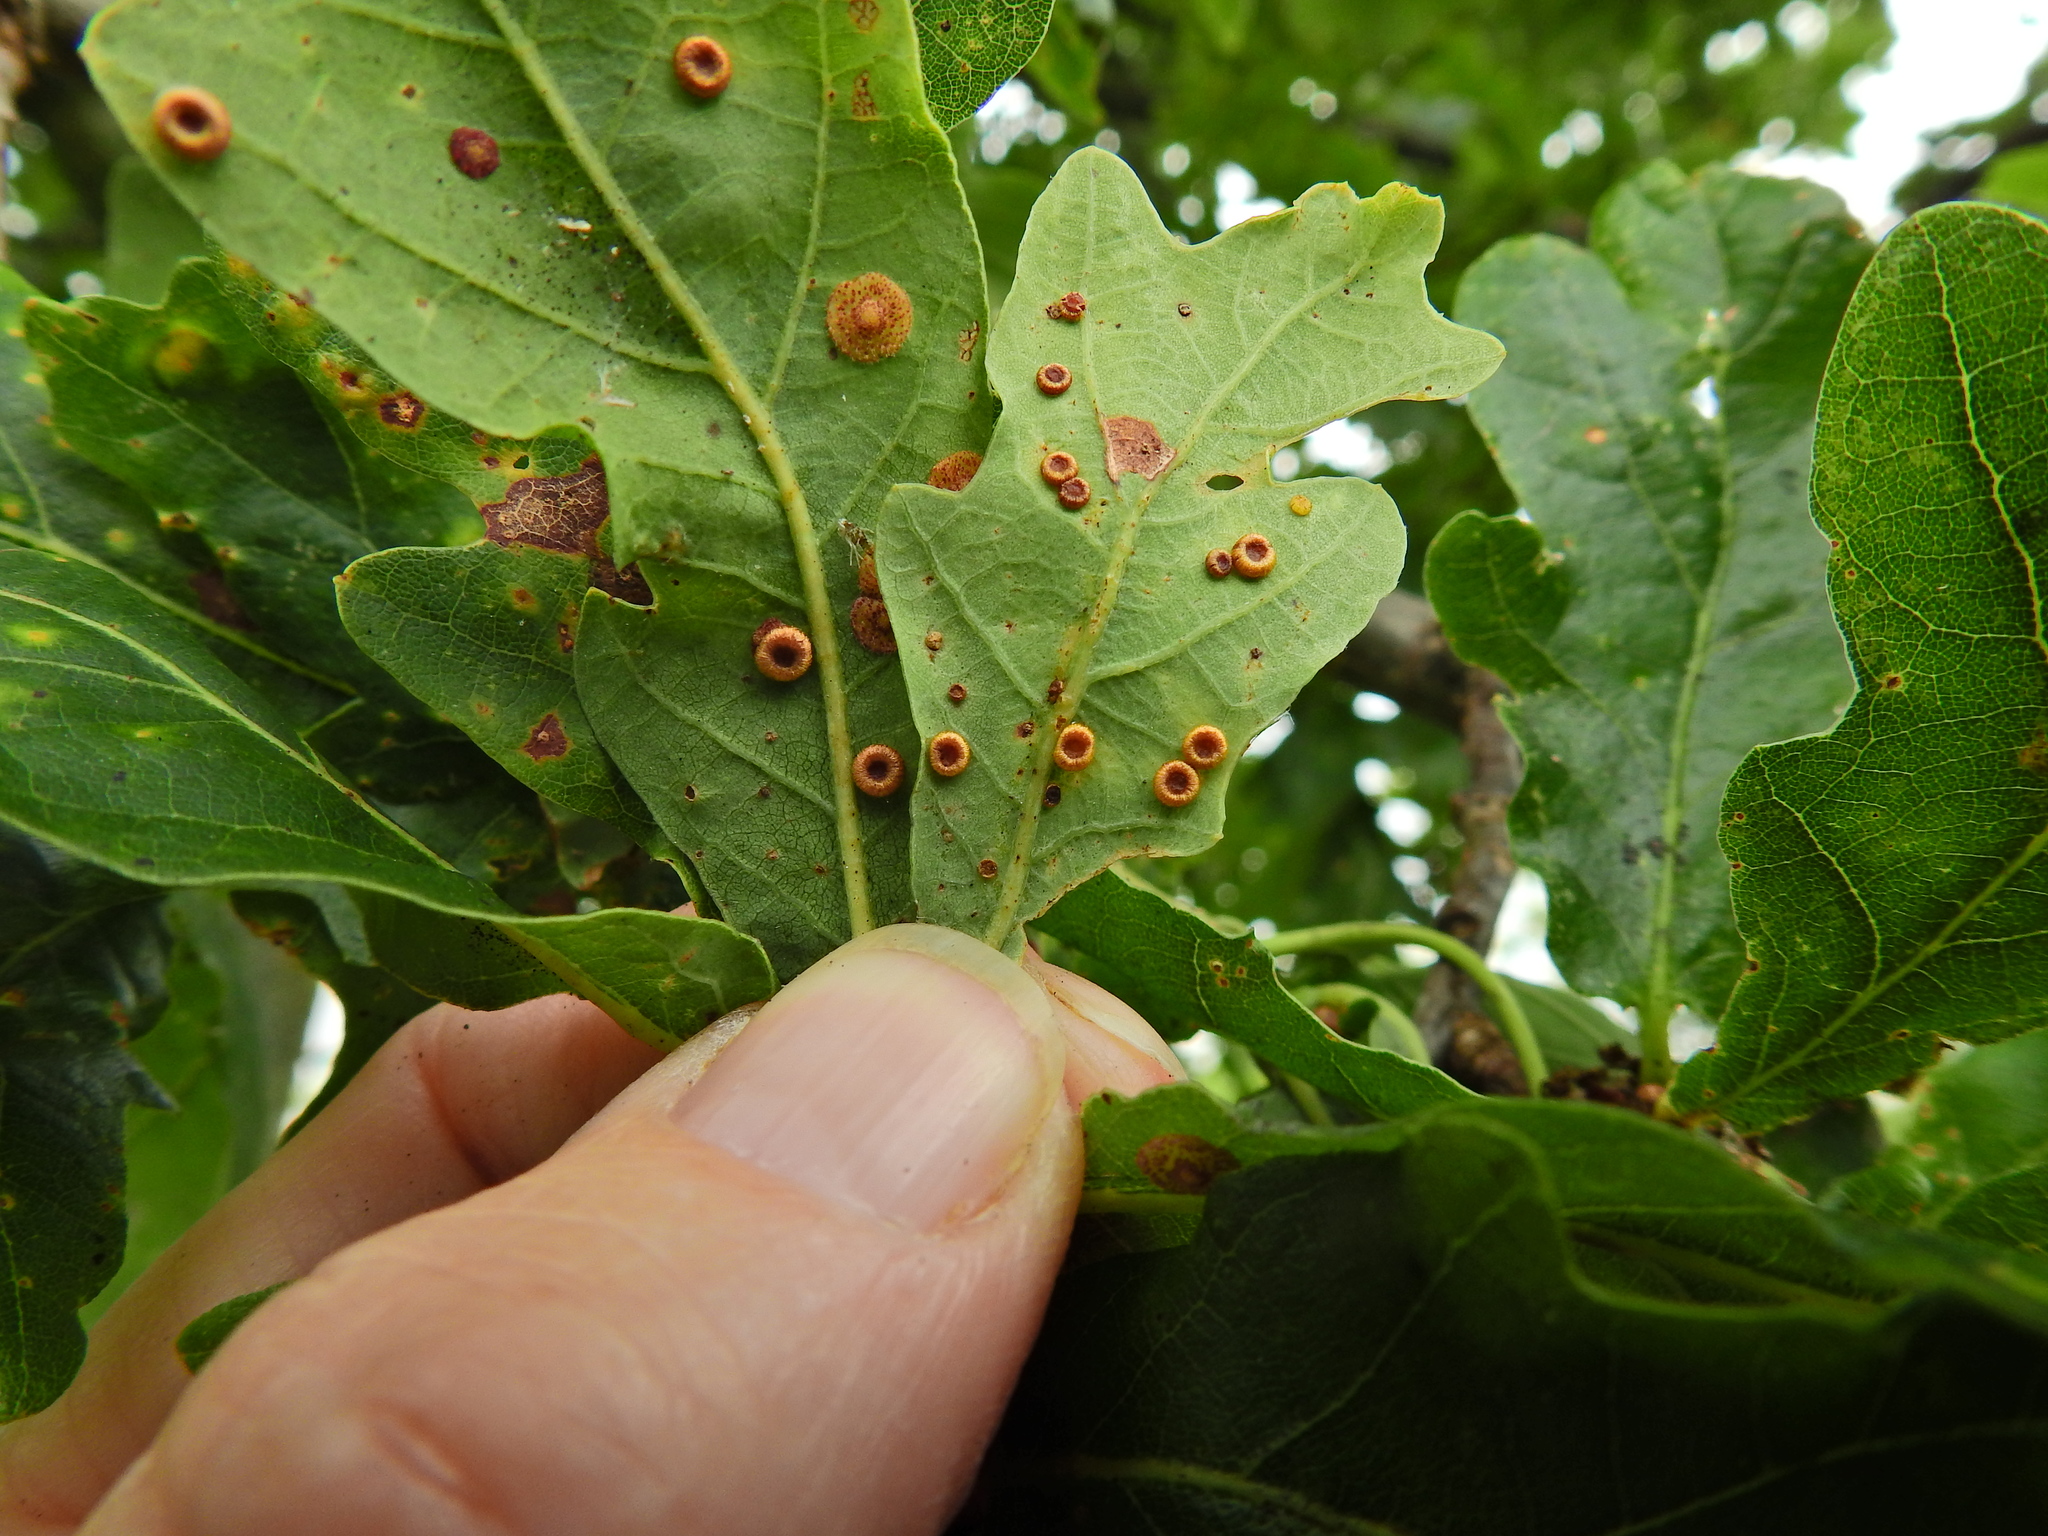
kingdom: Animalia
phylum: Arthropoda
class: Insecta
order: Hymenoptera
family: Cynipidae
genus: Neuroterus
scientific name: Neuroterus numismalis
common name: Silk-button spangle gall
